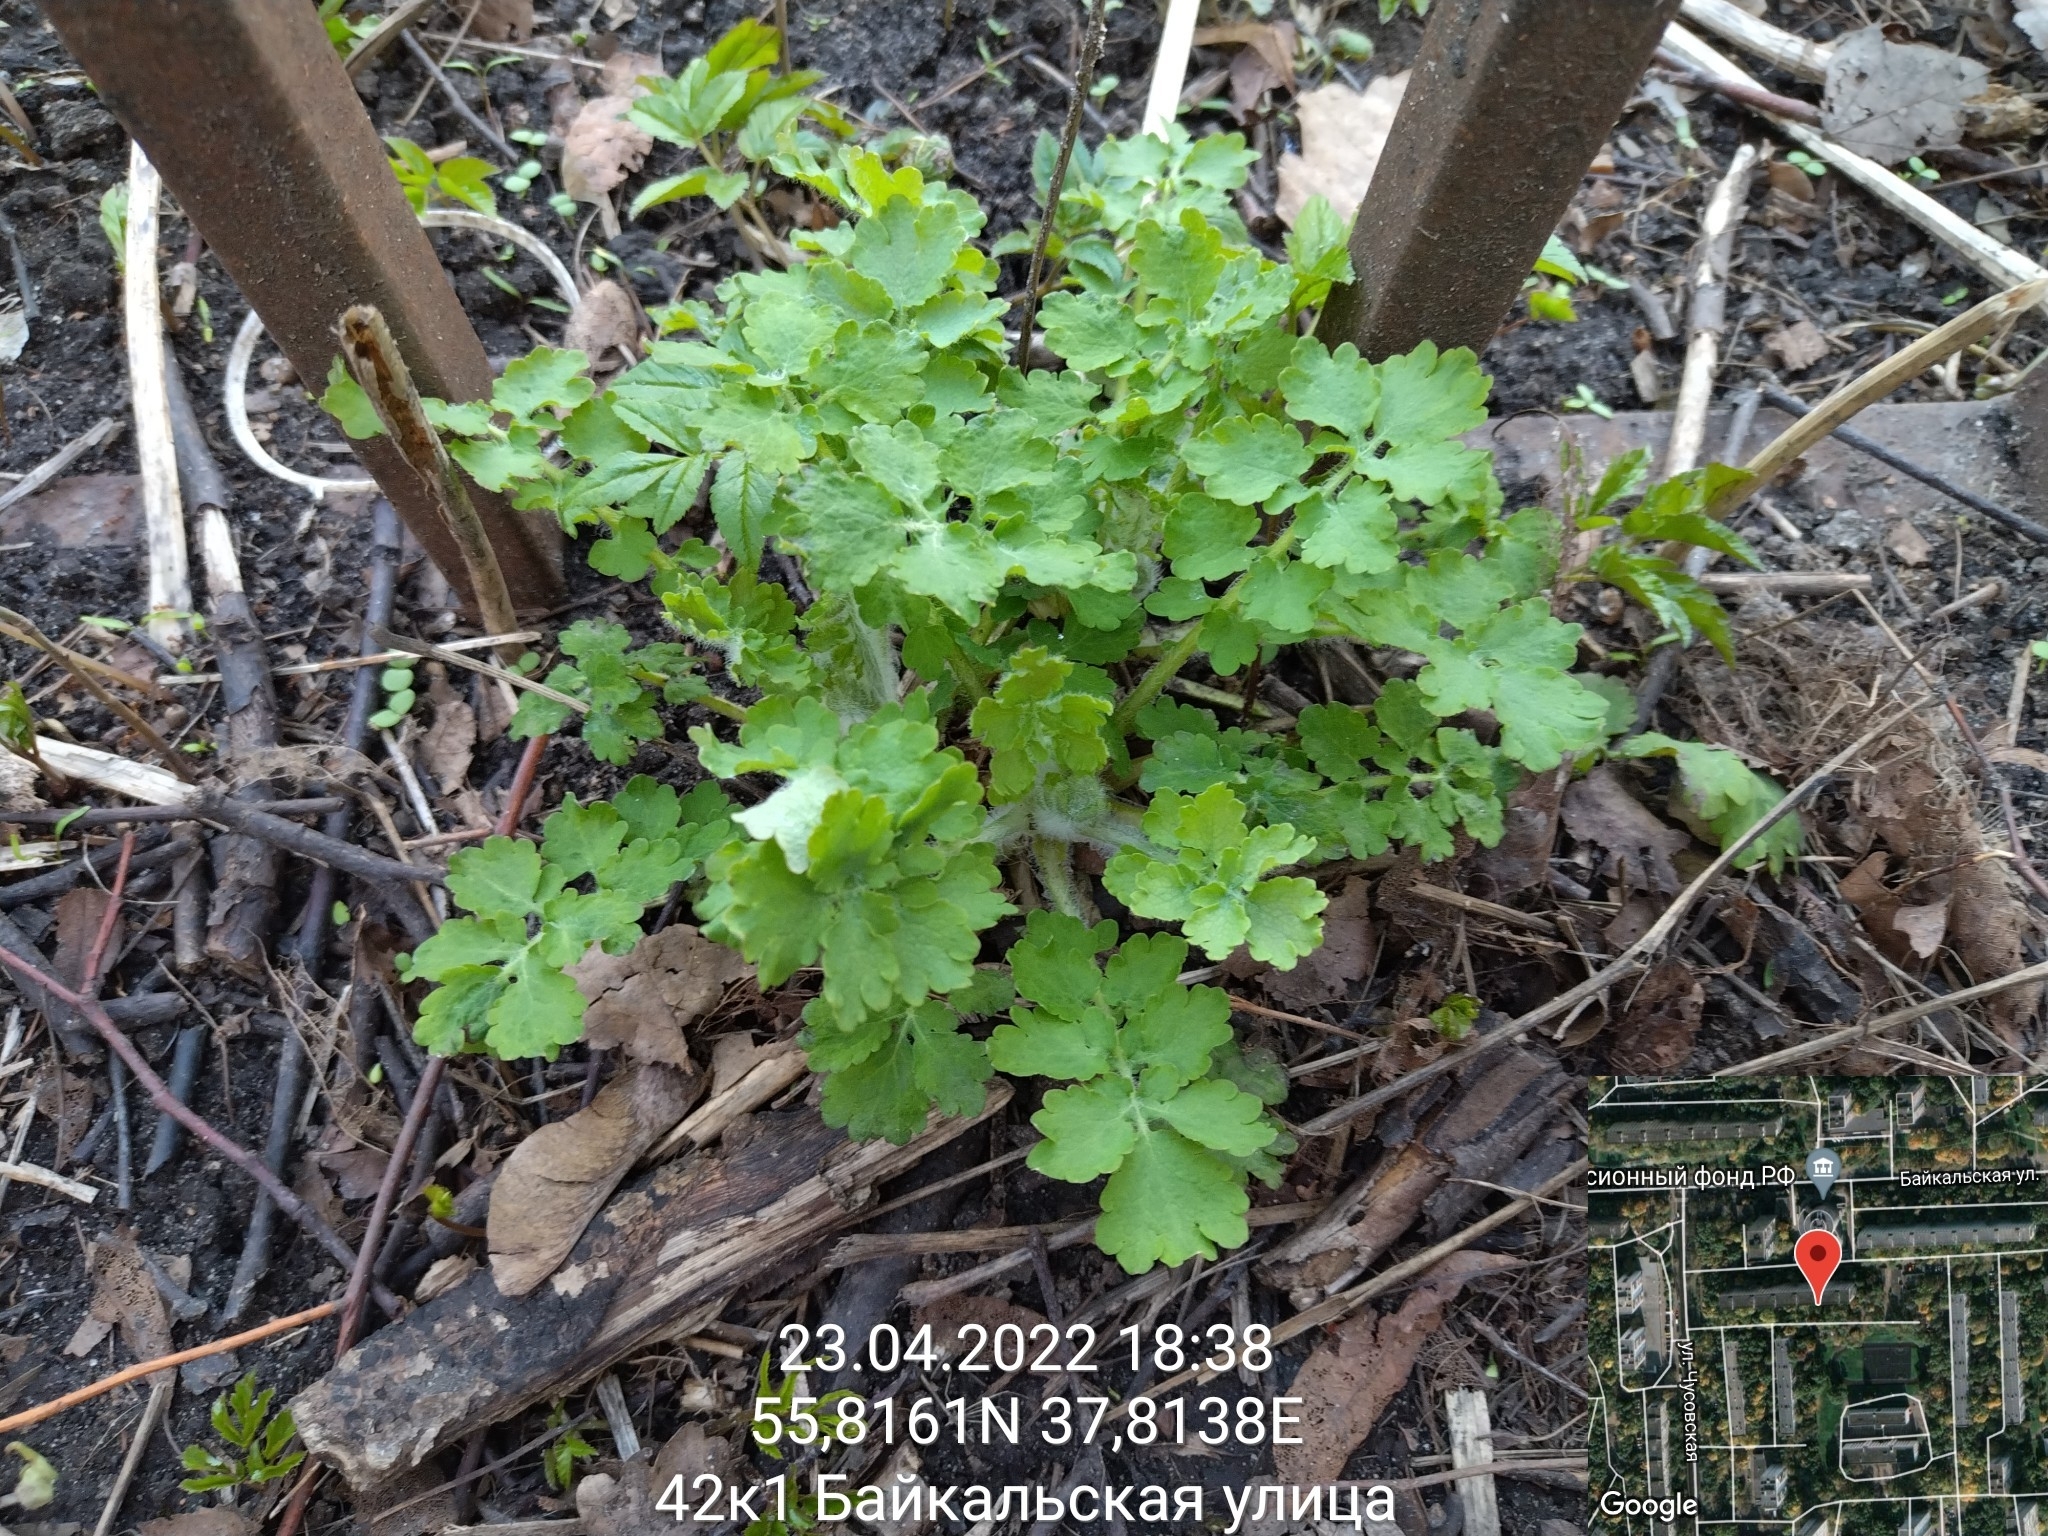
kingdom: Plantae
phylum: Tracheophyta
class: Magnoliopsida
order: Ranunculales
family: Papaveraceae
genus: Chelidonium
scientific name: Chelidonium majus
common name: Greater celandine
